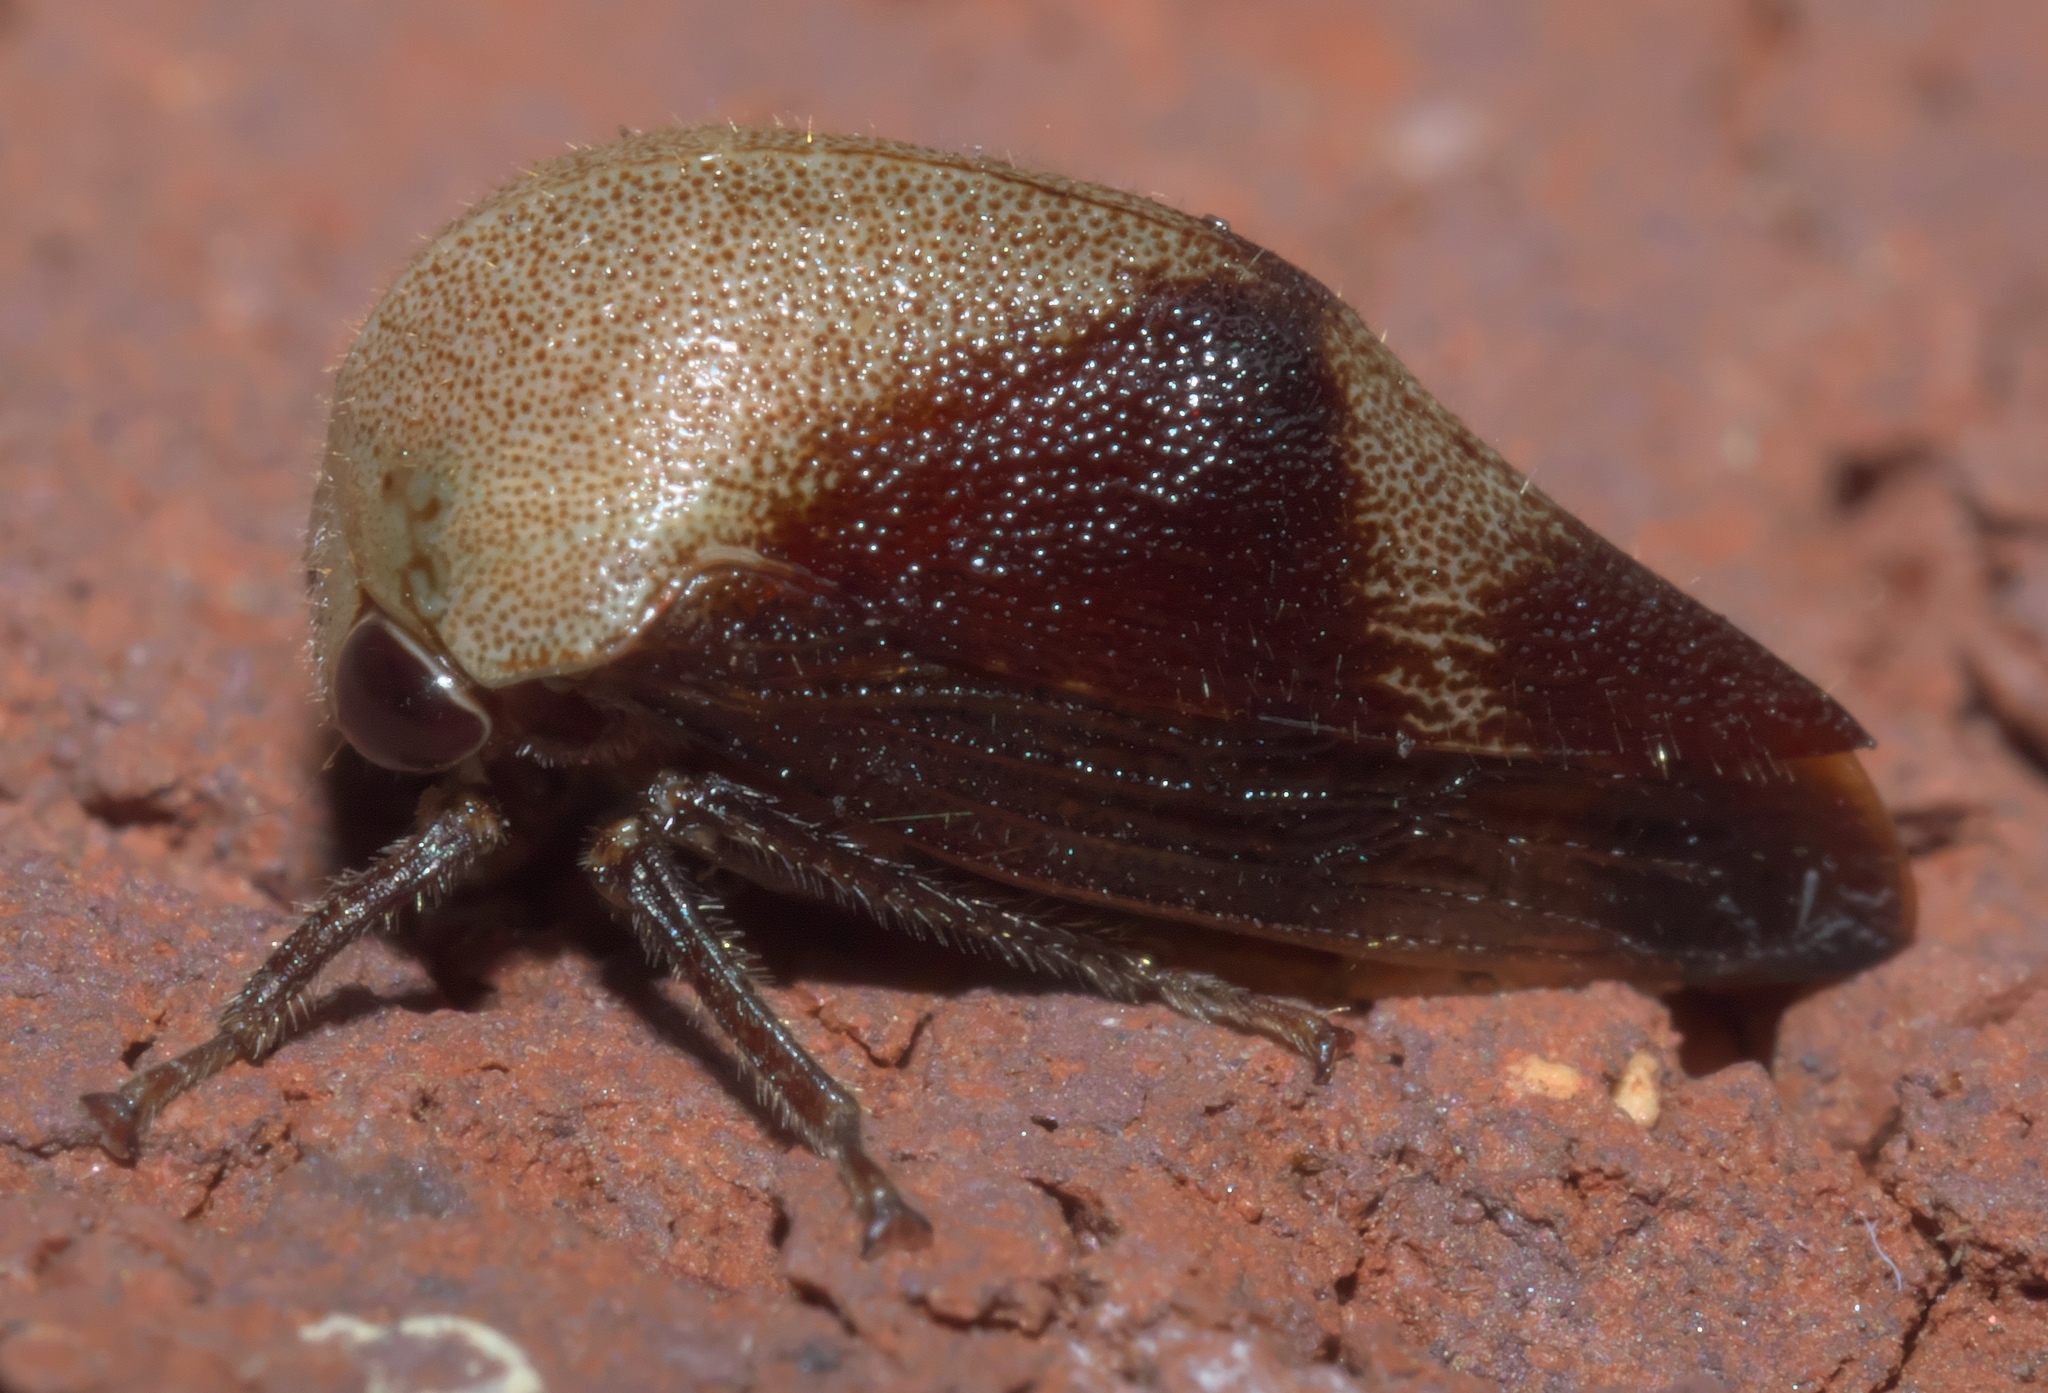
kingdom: Animalia
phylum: Arthropoda
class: Insecta
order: Hemiptera
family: Membracidae
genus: Carynota
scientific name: Carynota mera
